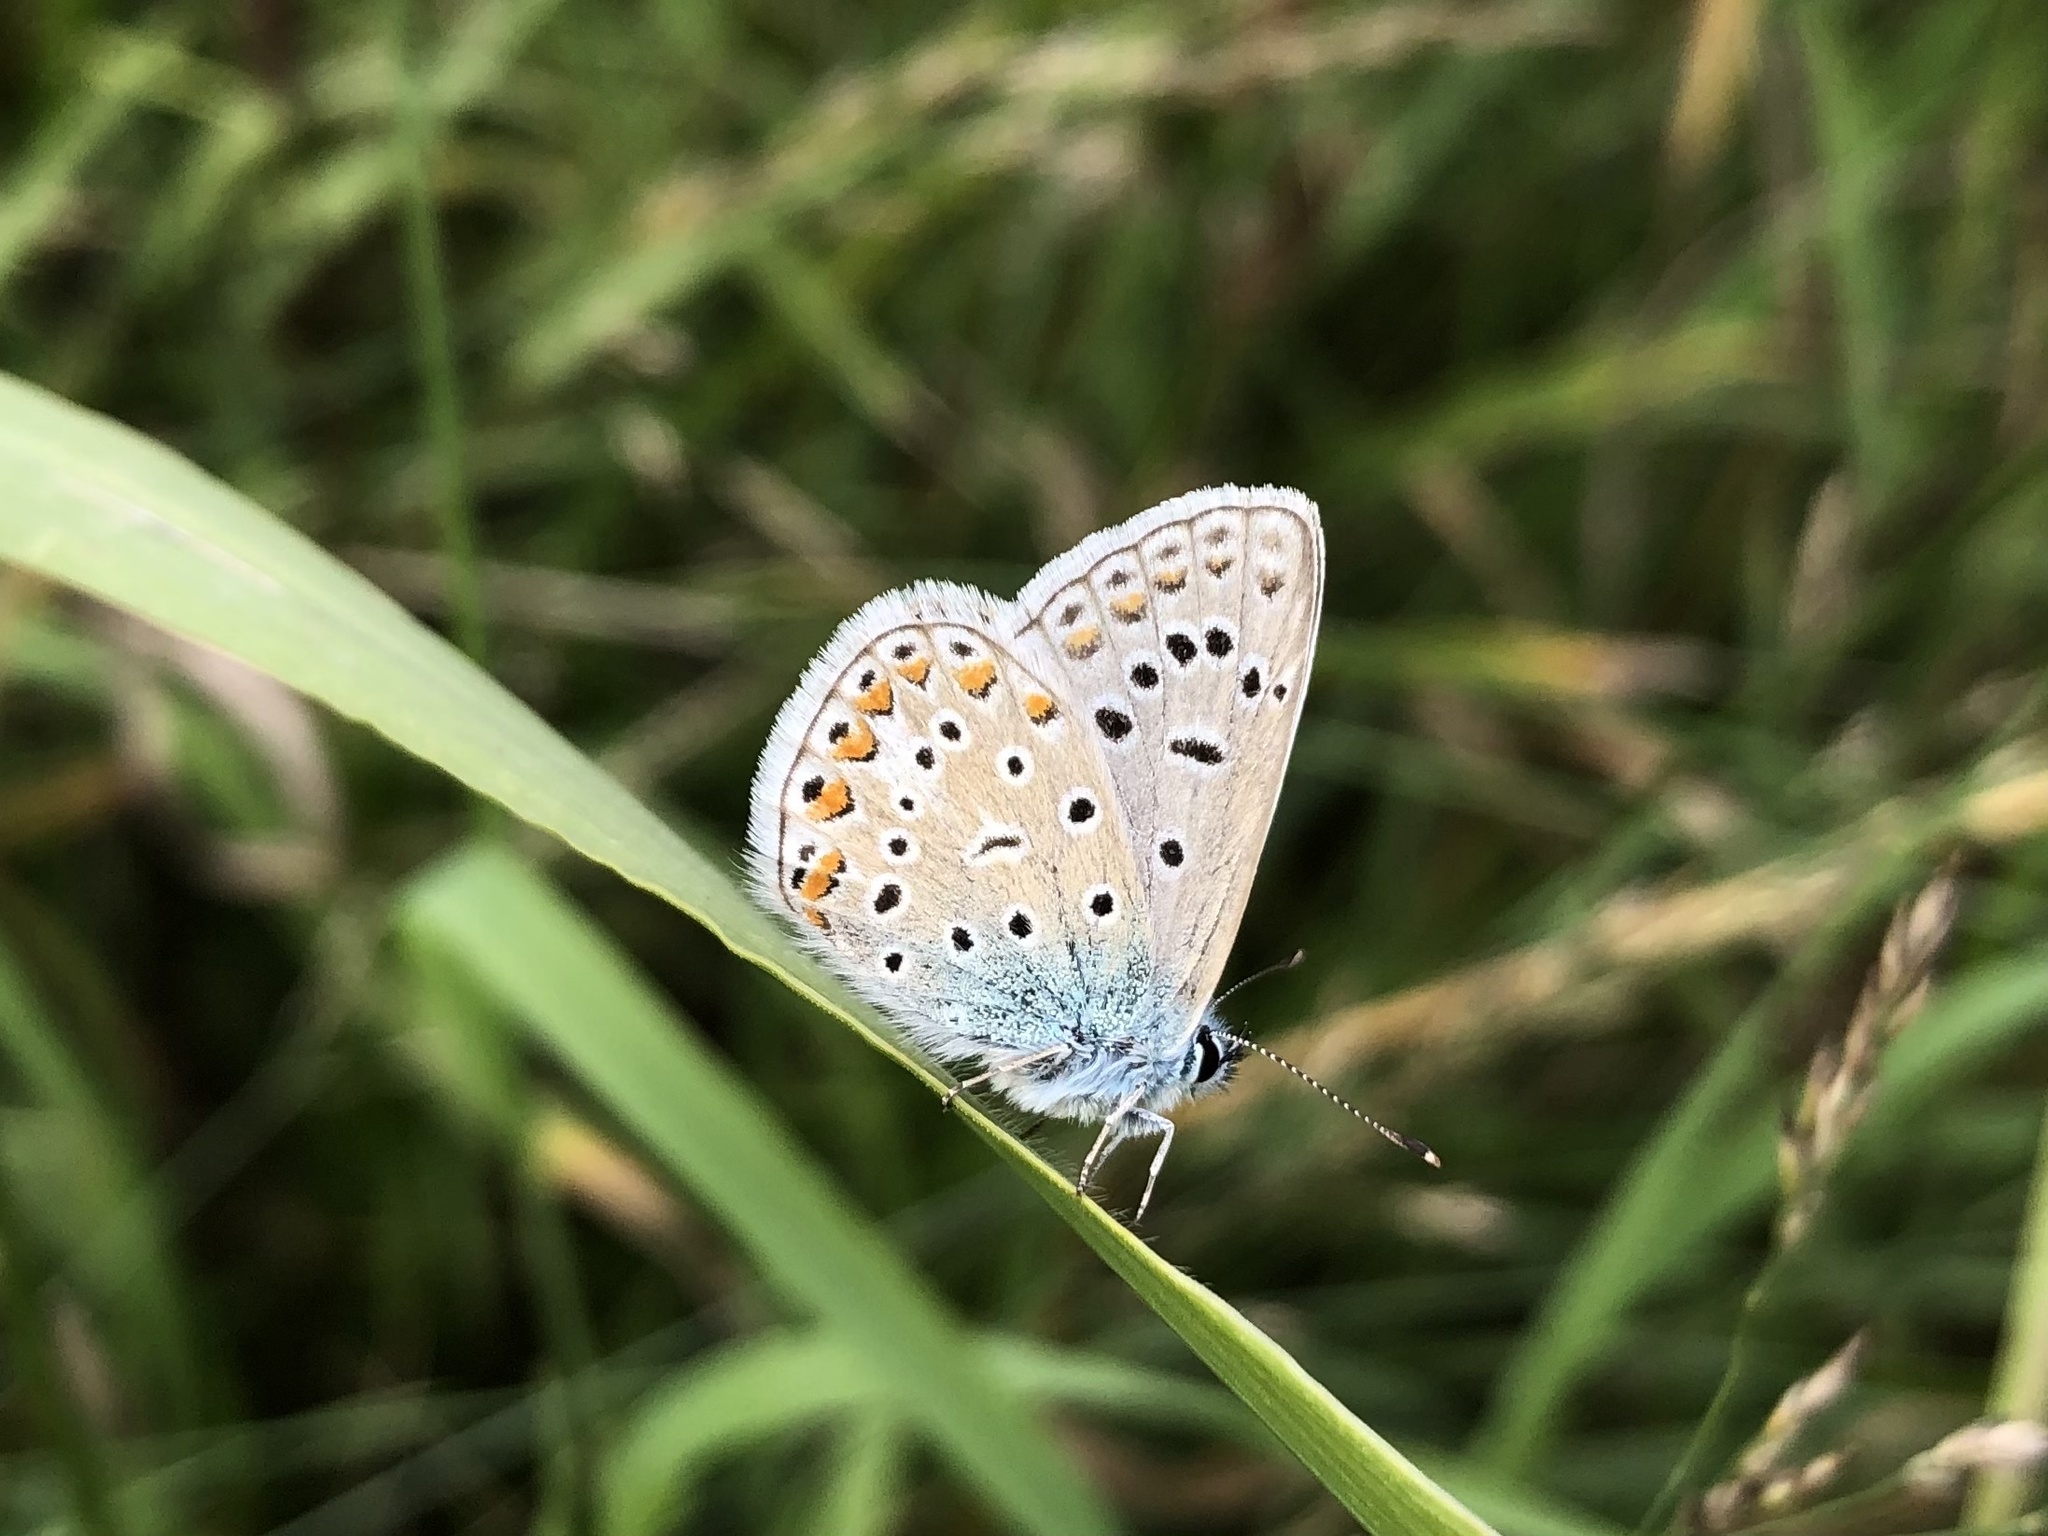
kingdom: Animalia
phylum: Arthropoda
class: Insecta
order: Lepidoptera
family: Lycaenidae
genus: Polyommatus
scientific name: Polyommatus icarus
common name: Common blue
